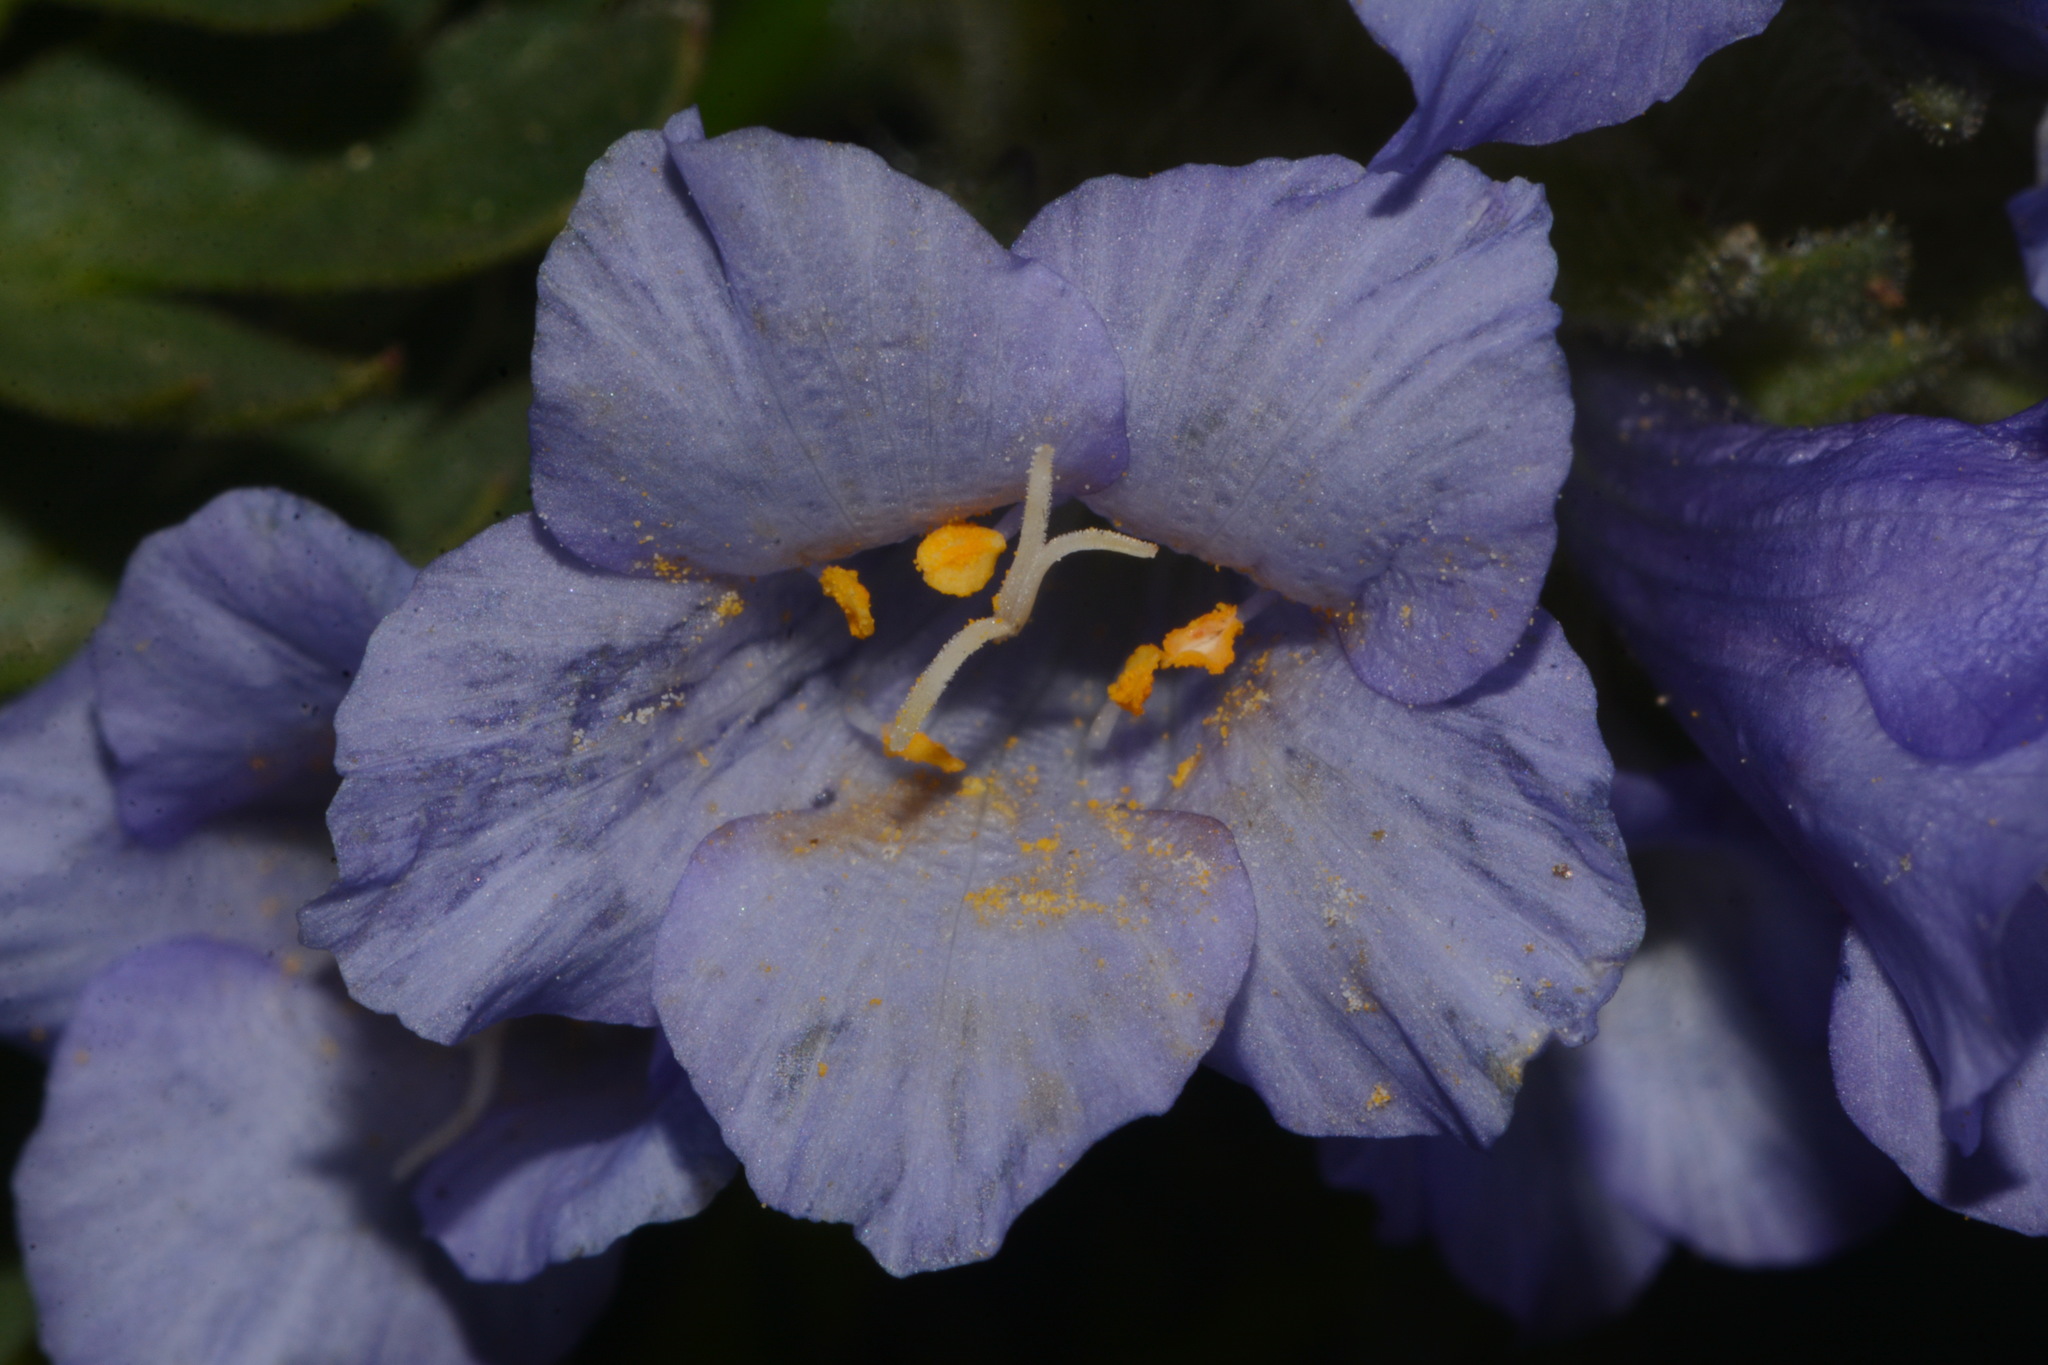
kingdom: Plantae
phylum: Tracheophyta
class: Magnoliopsida
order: Ericales
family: Polemoniaceae
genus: Polemonium
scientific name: Polemonium viscosum
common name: Skunk jacob's-ladder
